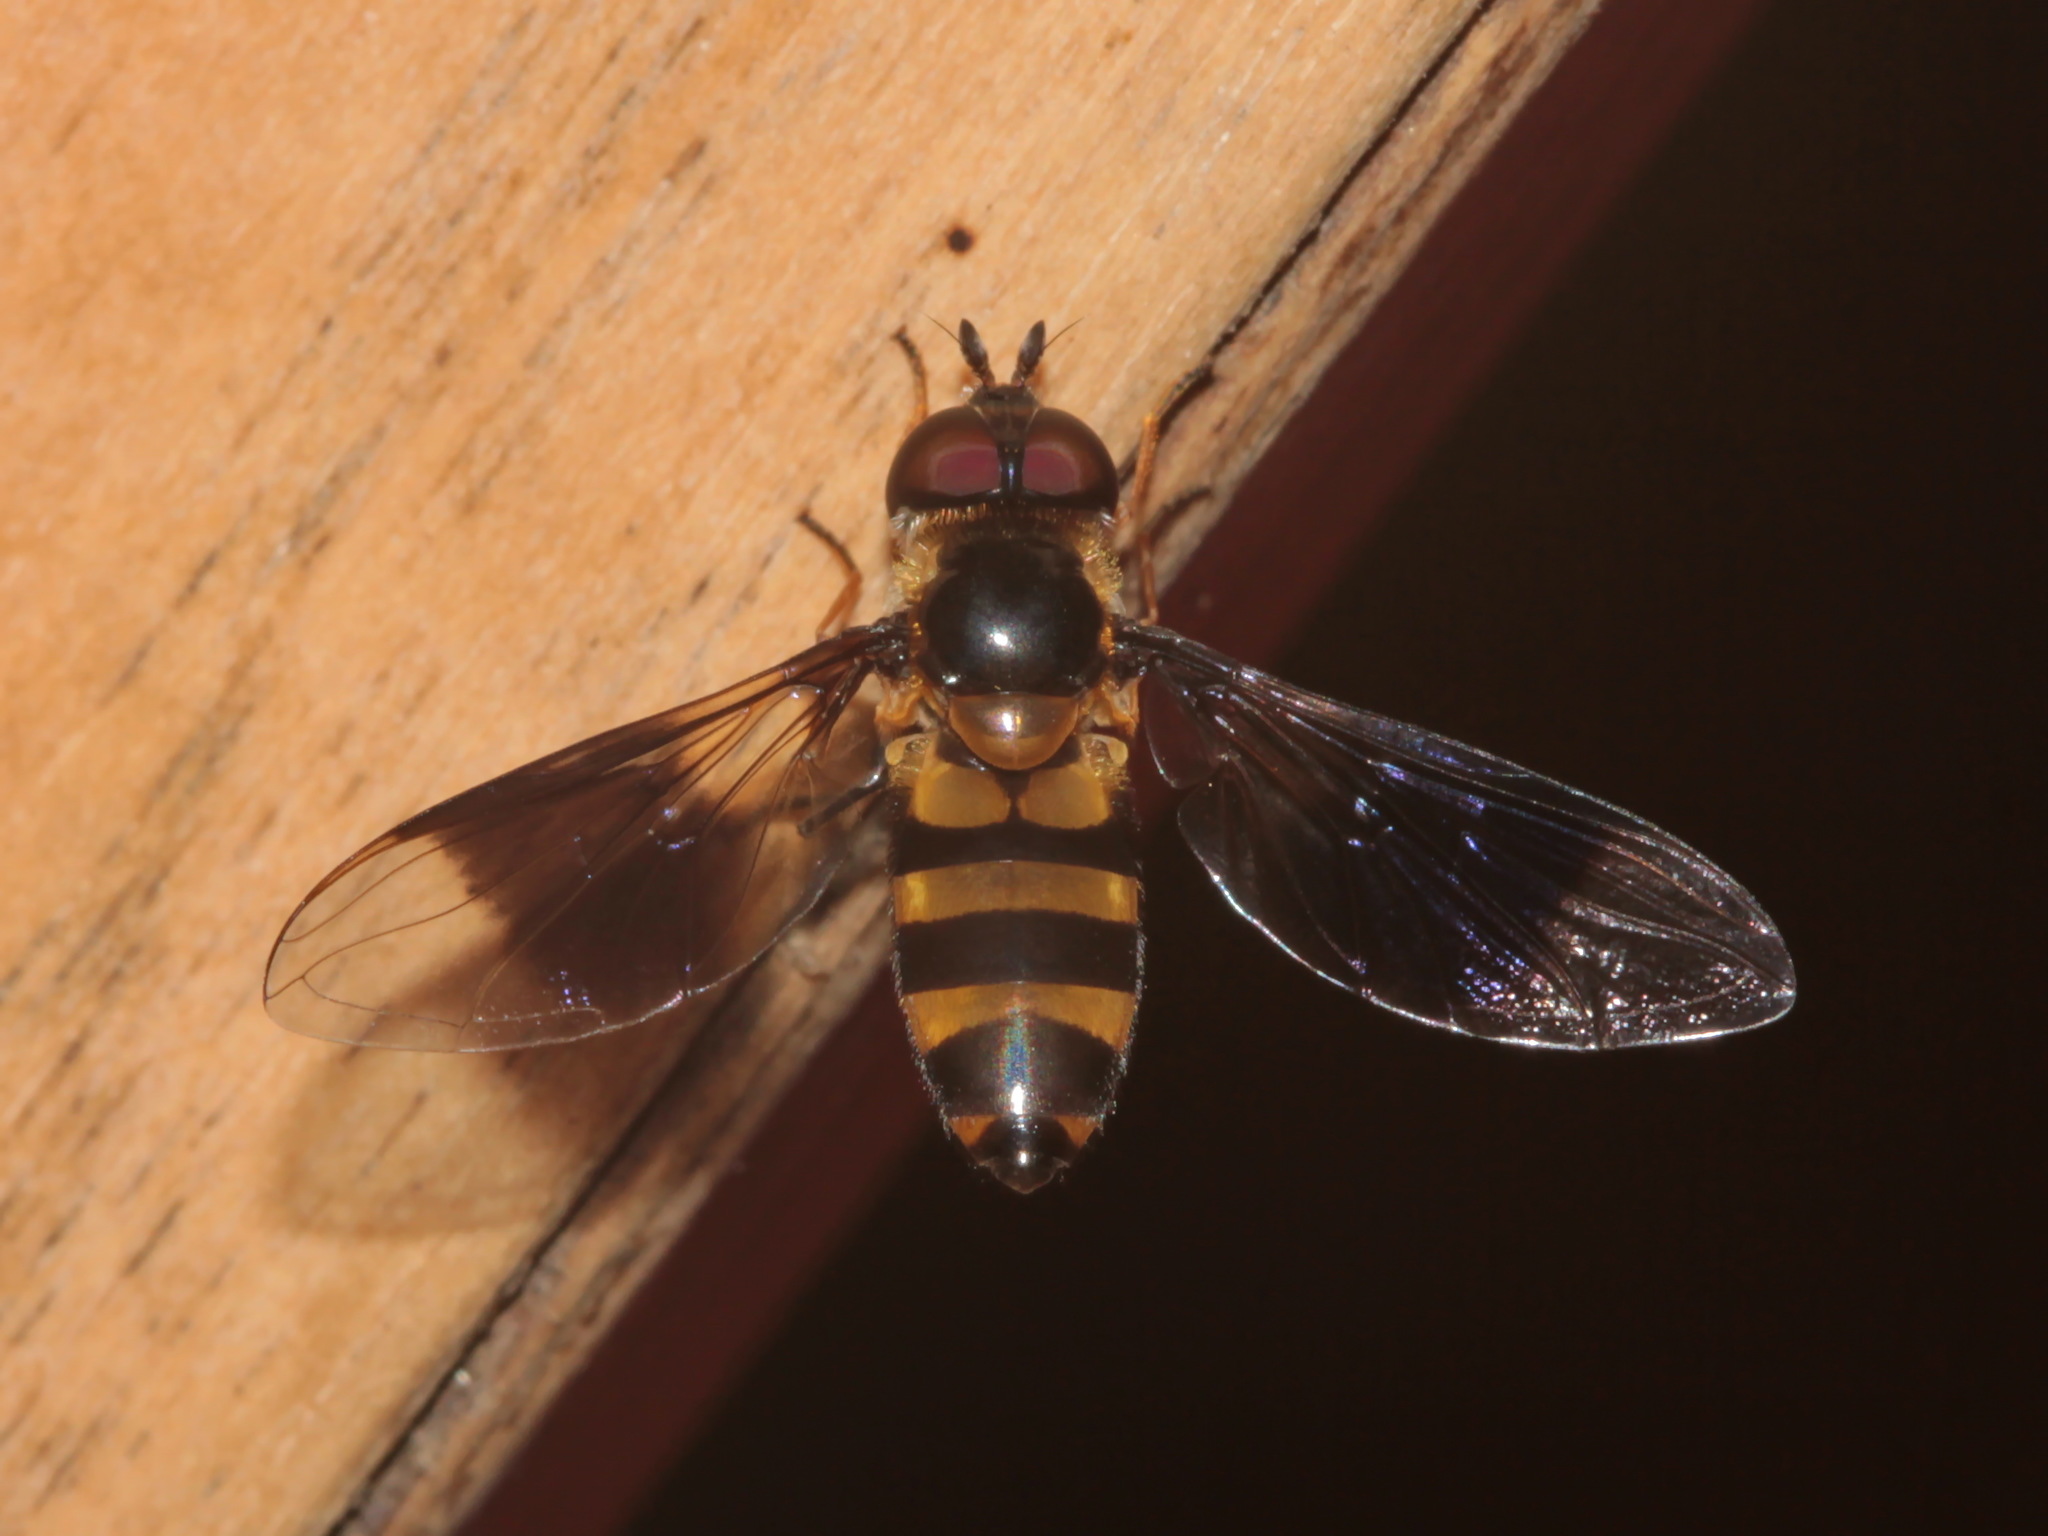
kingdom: Animalia
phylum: Arthropoda
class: Insecta
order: Diptera
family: Syrphidae
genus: Dideopsis
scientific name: Dideopsis aegrota
